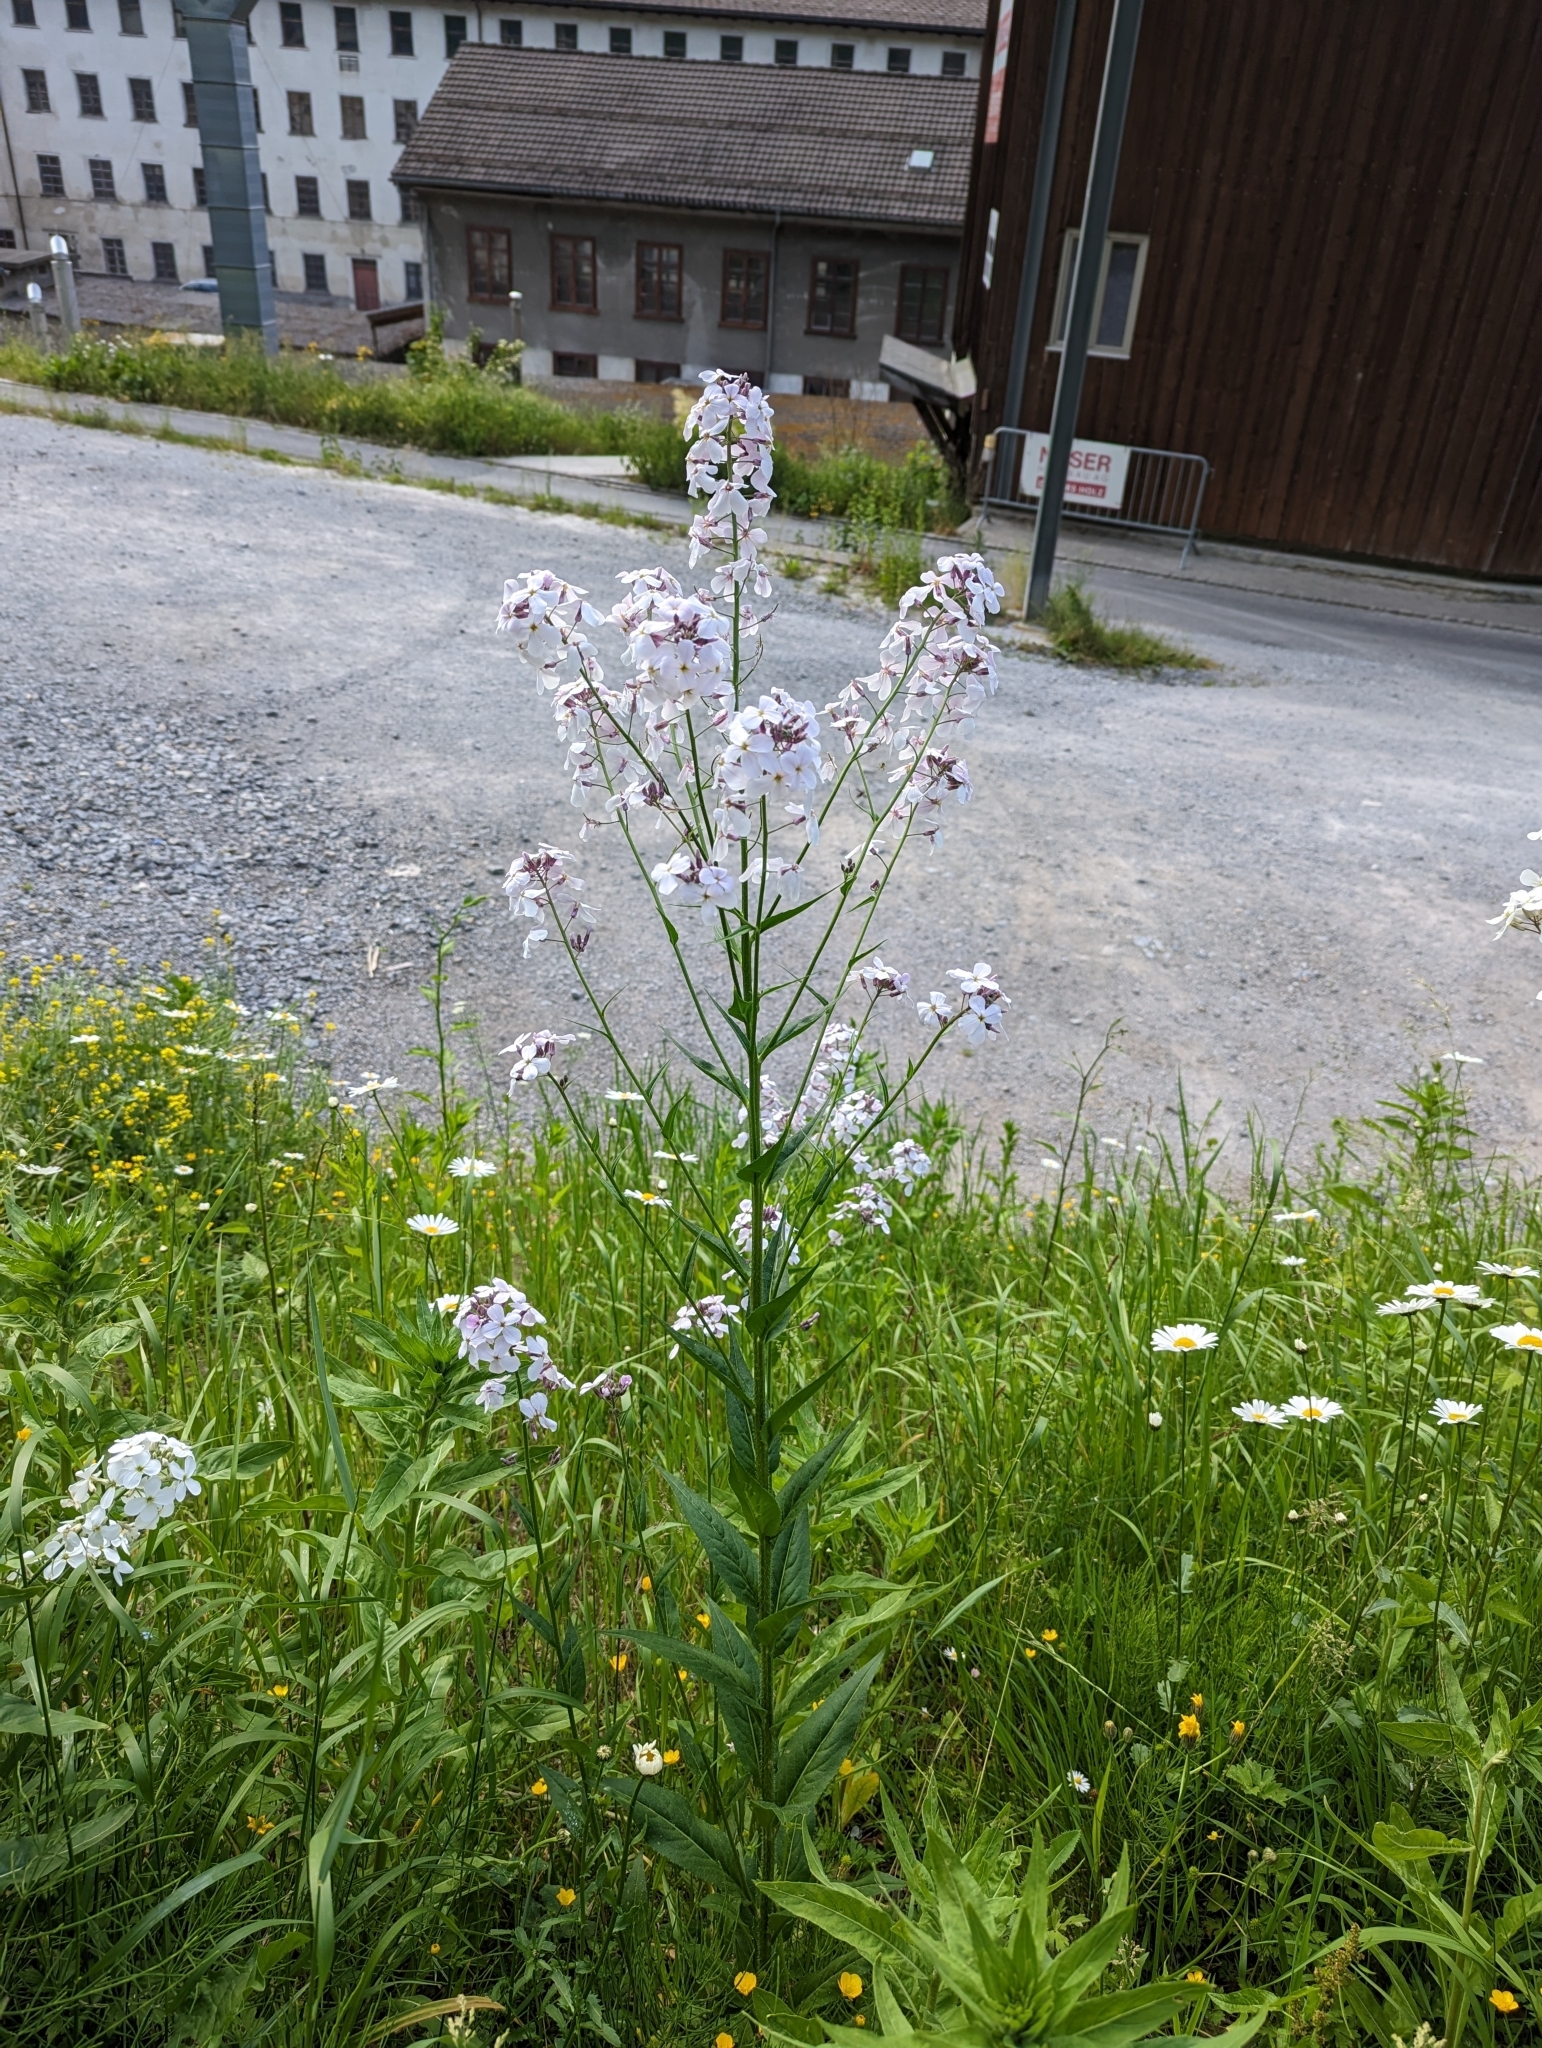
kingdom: Plantae
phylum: Tracheophyta
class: Magnoliopsida
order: Brassicales
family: Brassicaceae
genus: Hesperis
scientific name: Hesperis matronalis
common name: Dame's-violet
